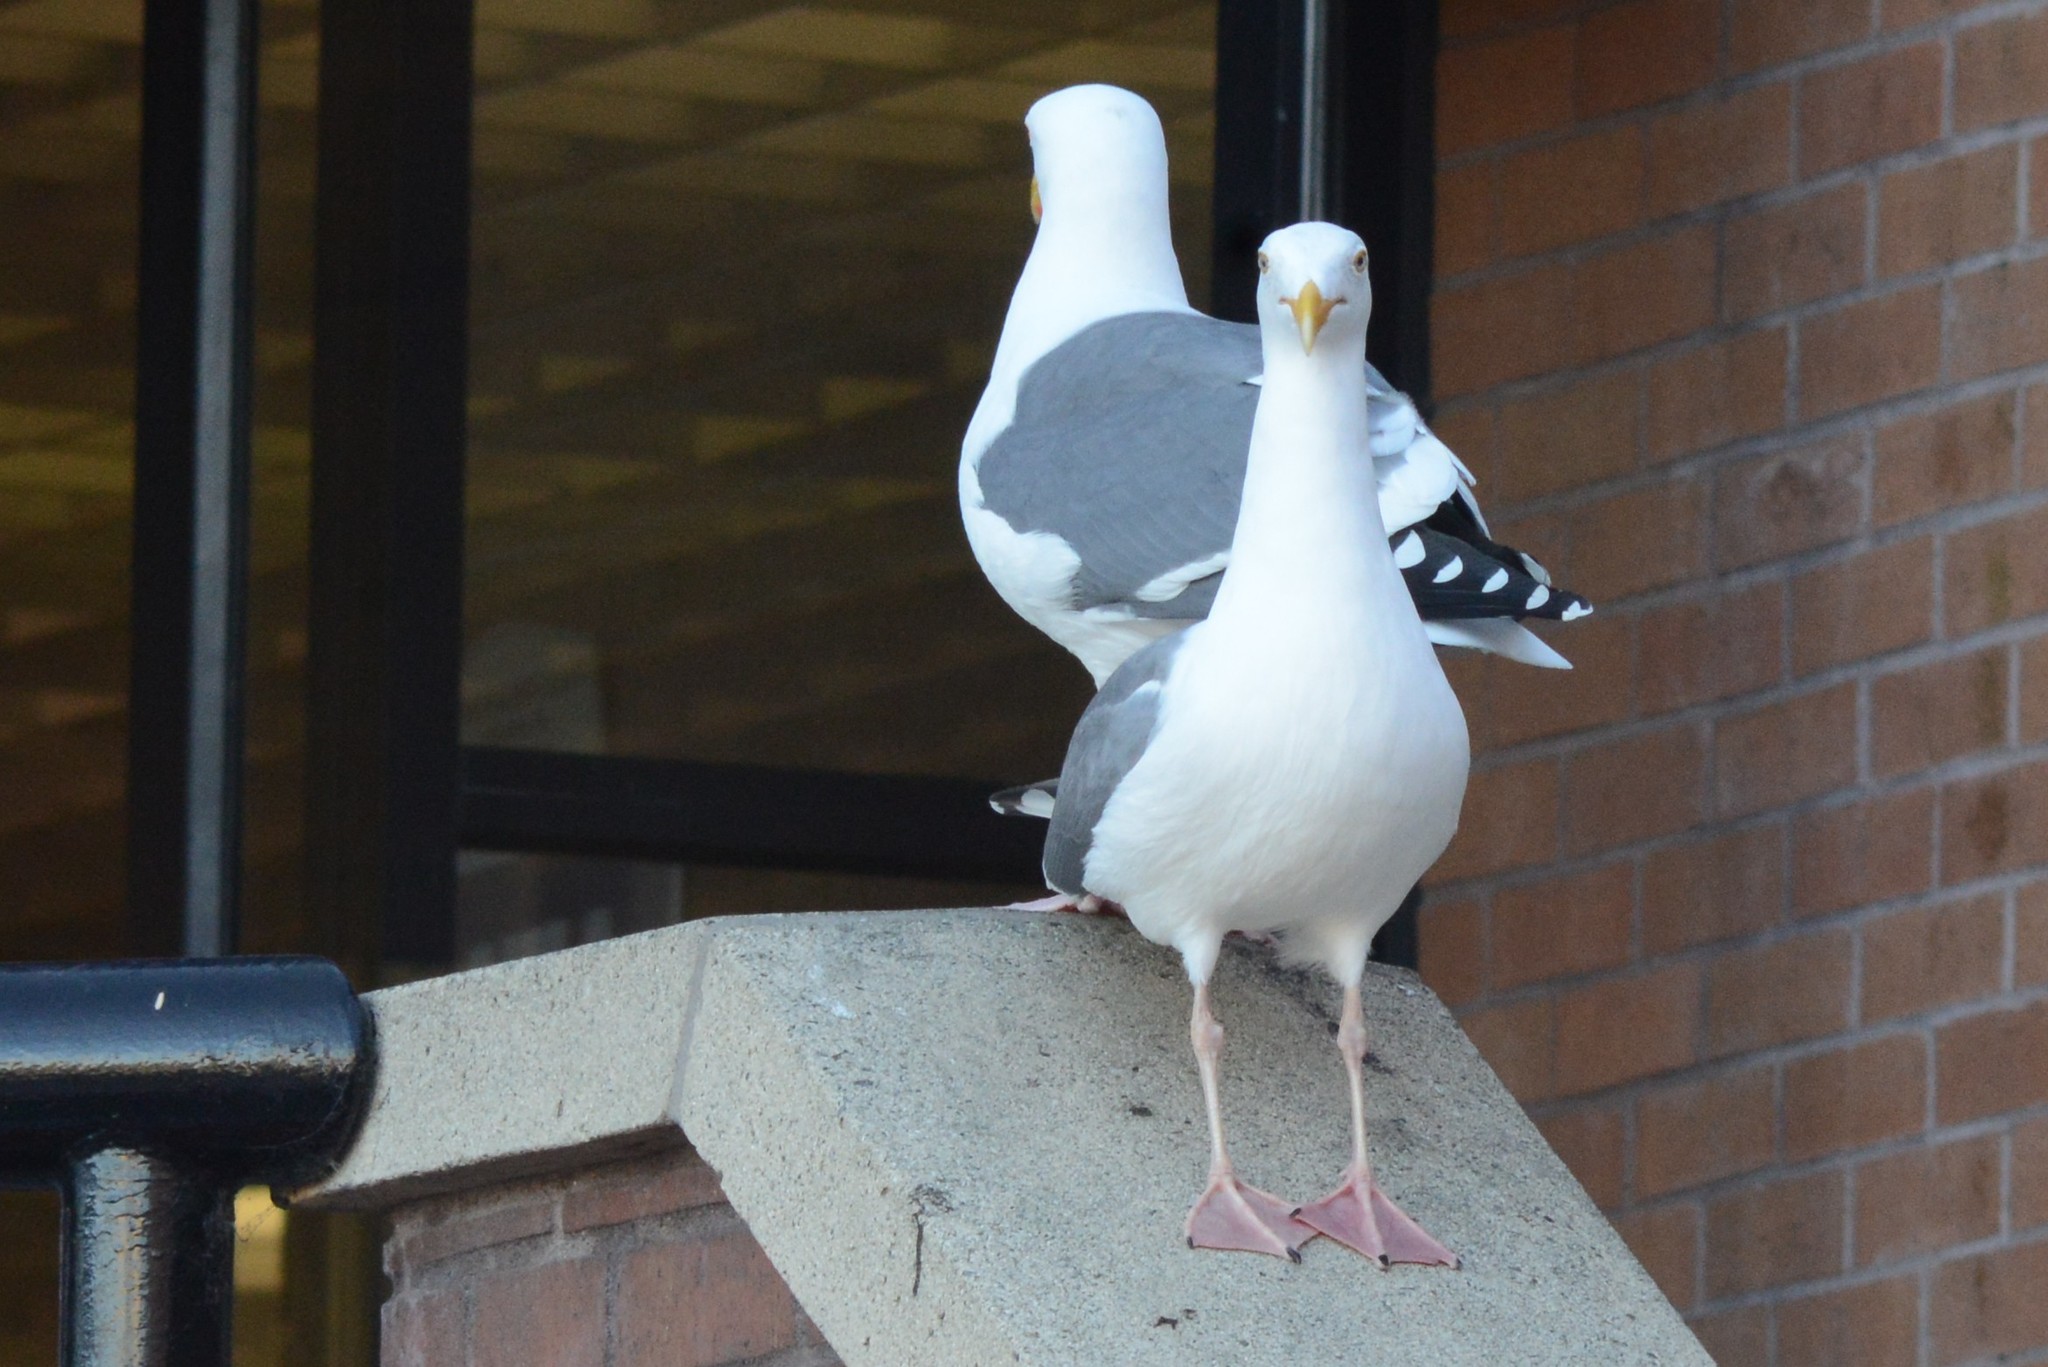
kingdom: Animalia
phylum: Chordata
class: Aves
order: Charadriiformes
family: Laridae
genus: Larus
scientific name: Larus occidentalis
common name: Western gull
